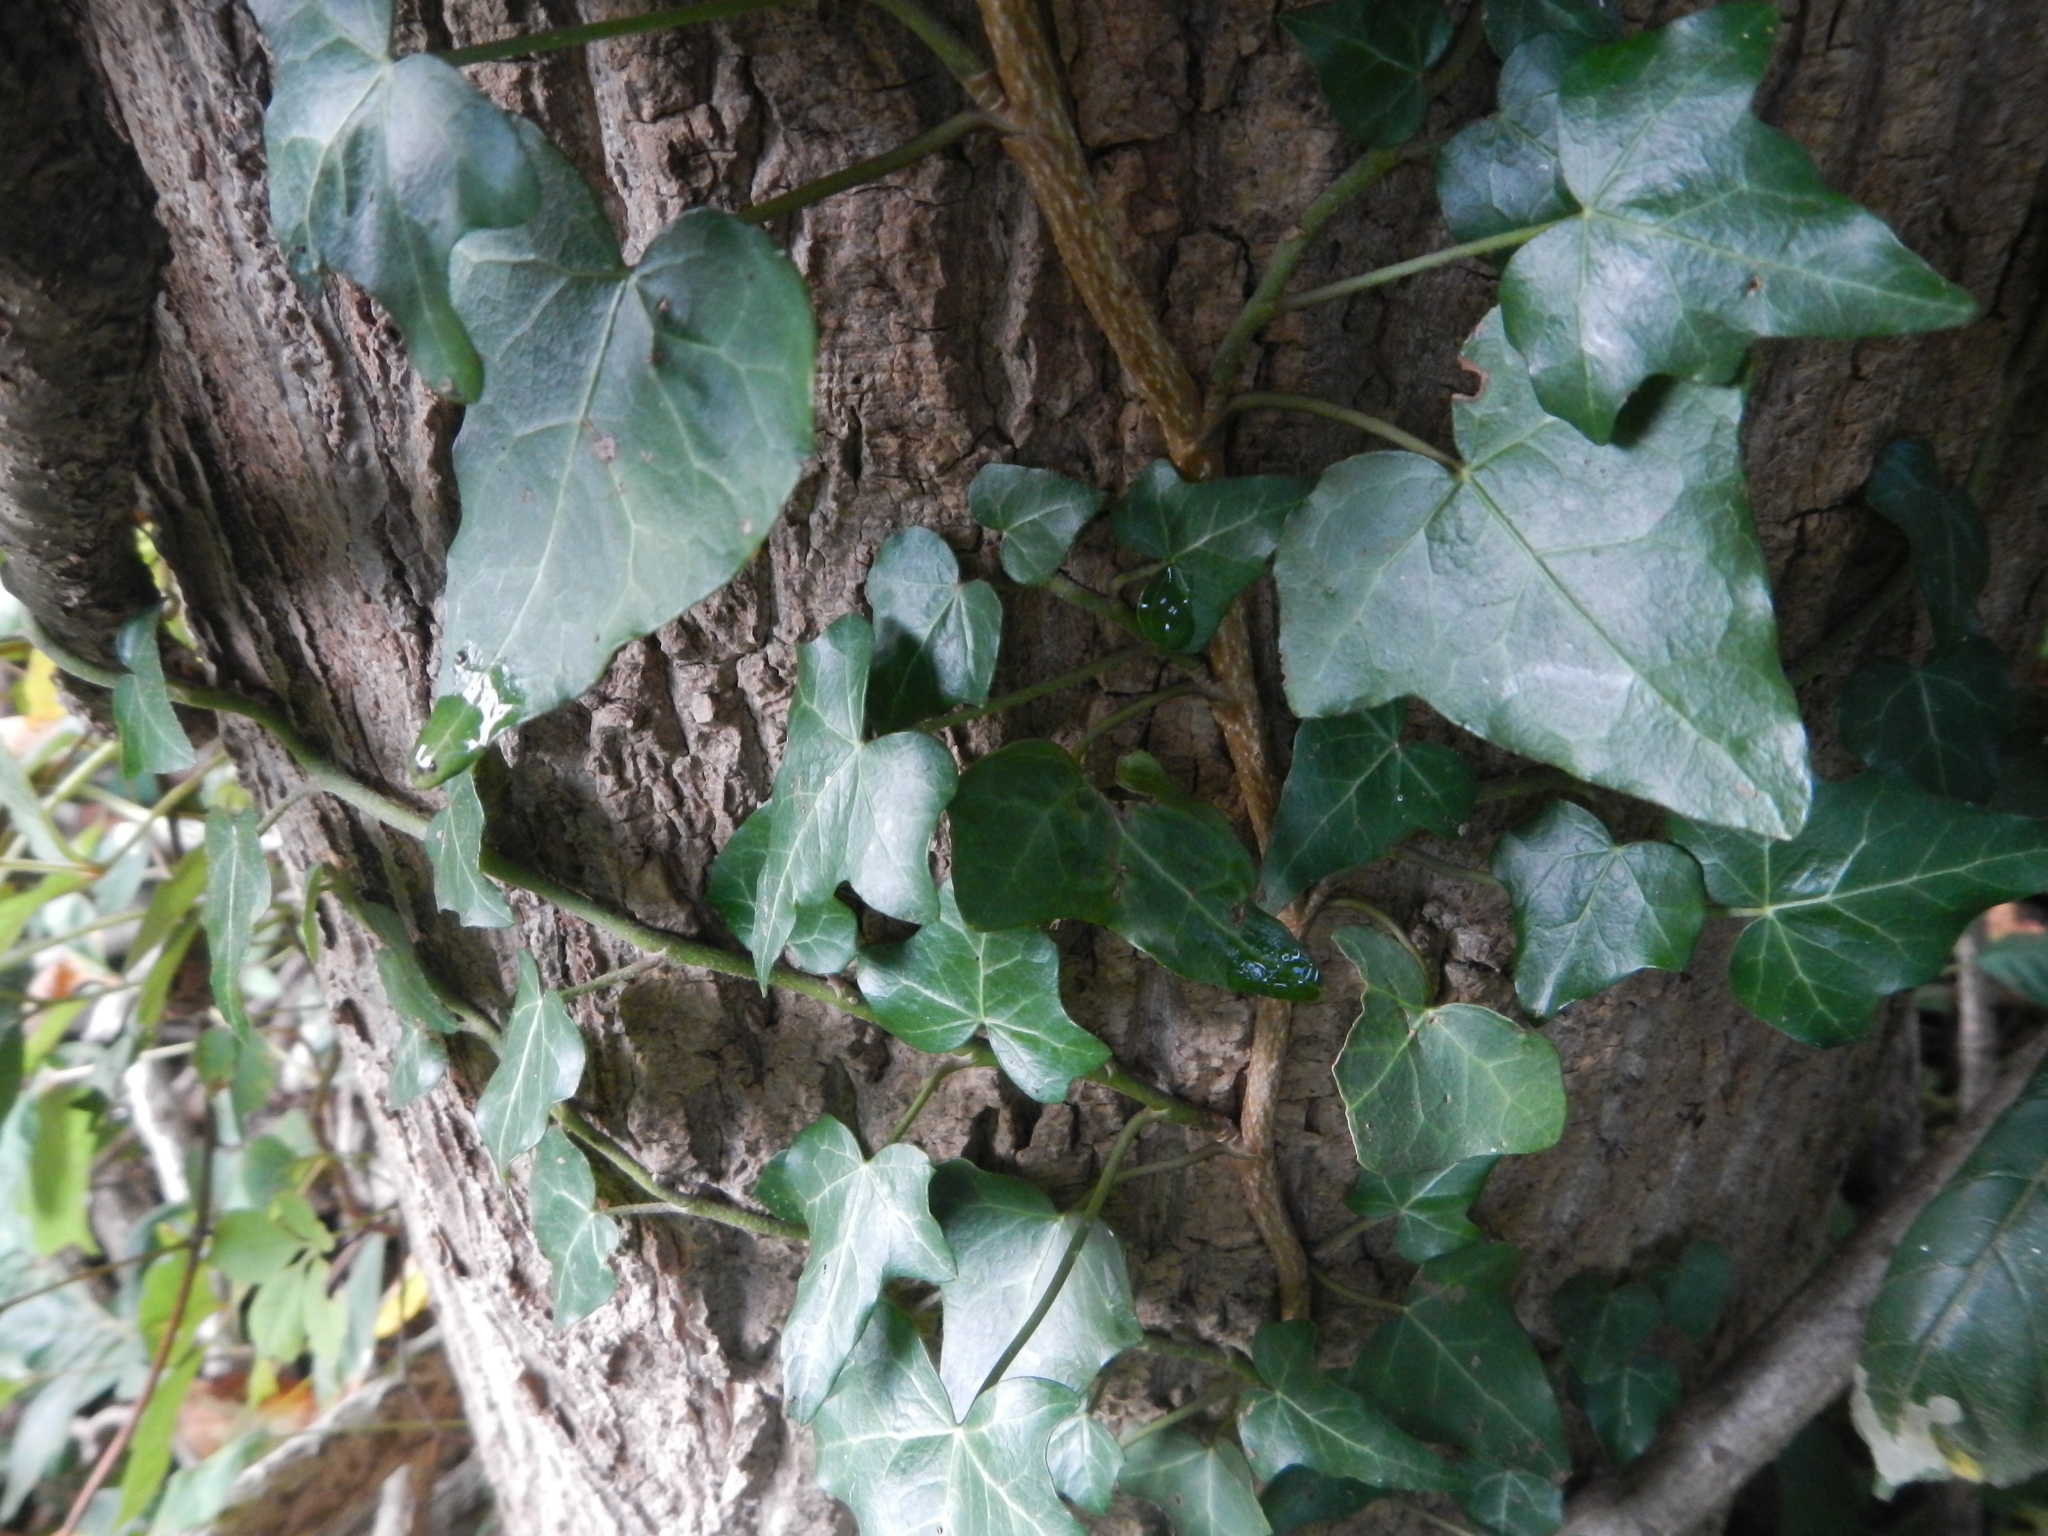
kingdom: Plantae
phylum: Tracheophyta
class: Magnoliopsida
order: Apiales
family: Araliaceae
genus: Hedera
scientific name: Hedera helix
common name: Ivy
